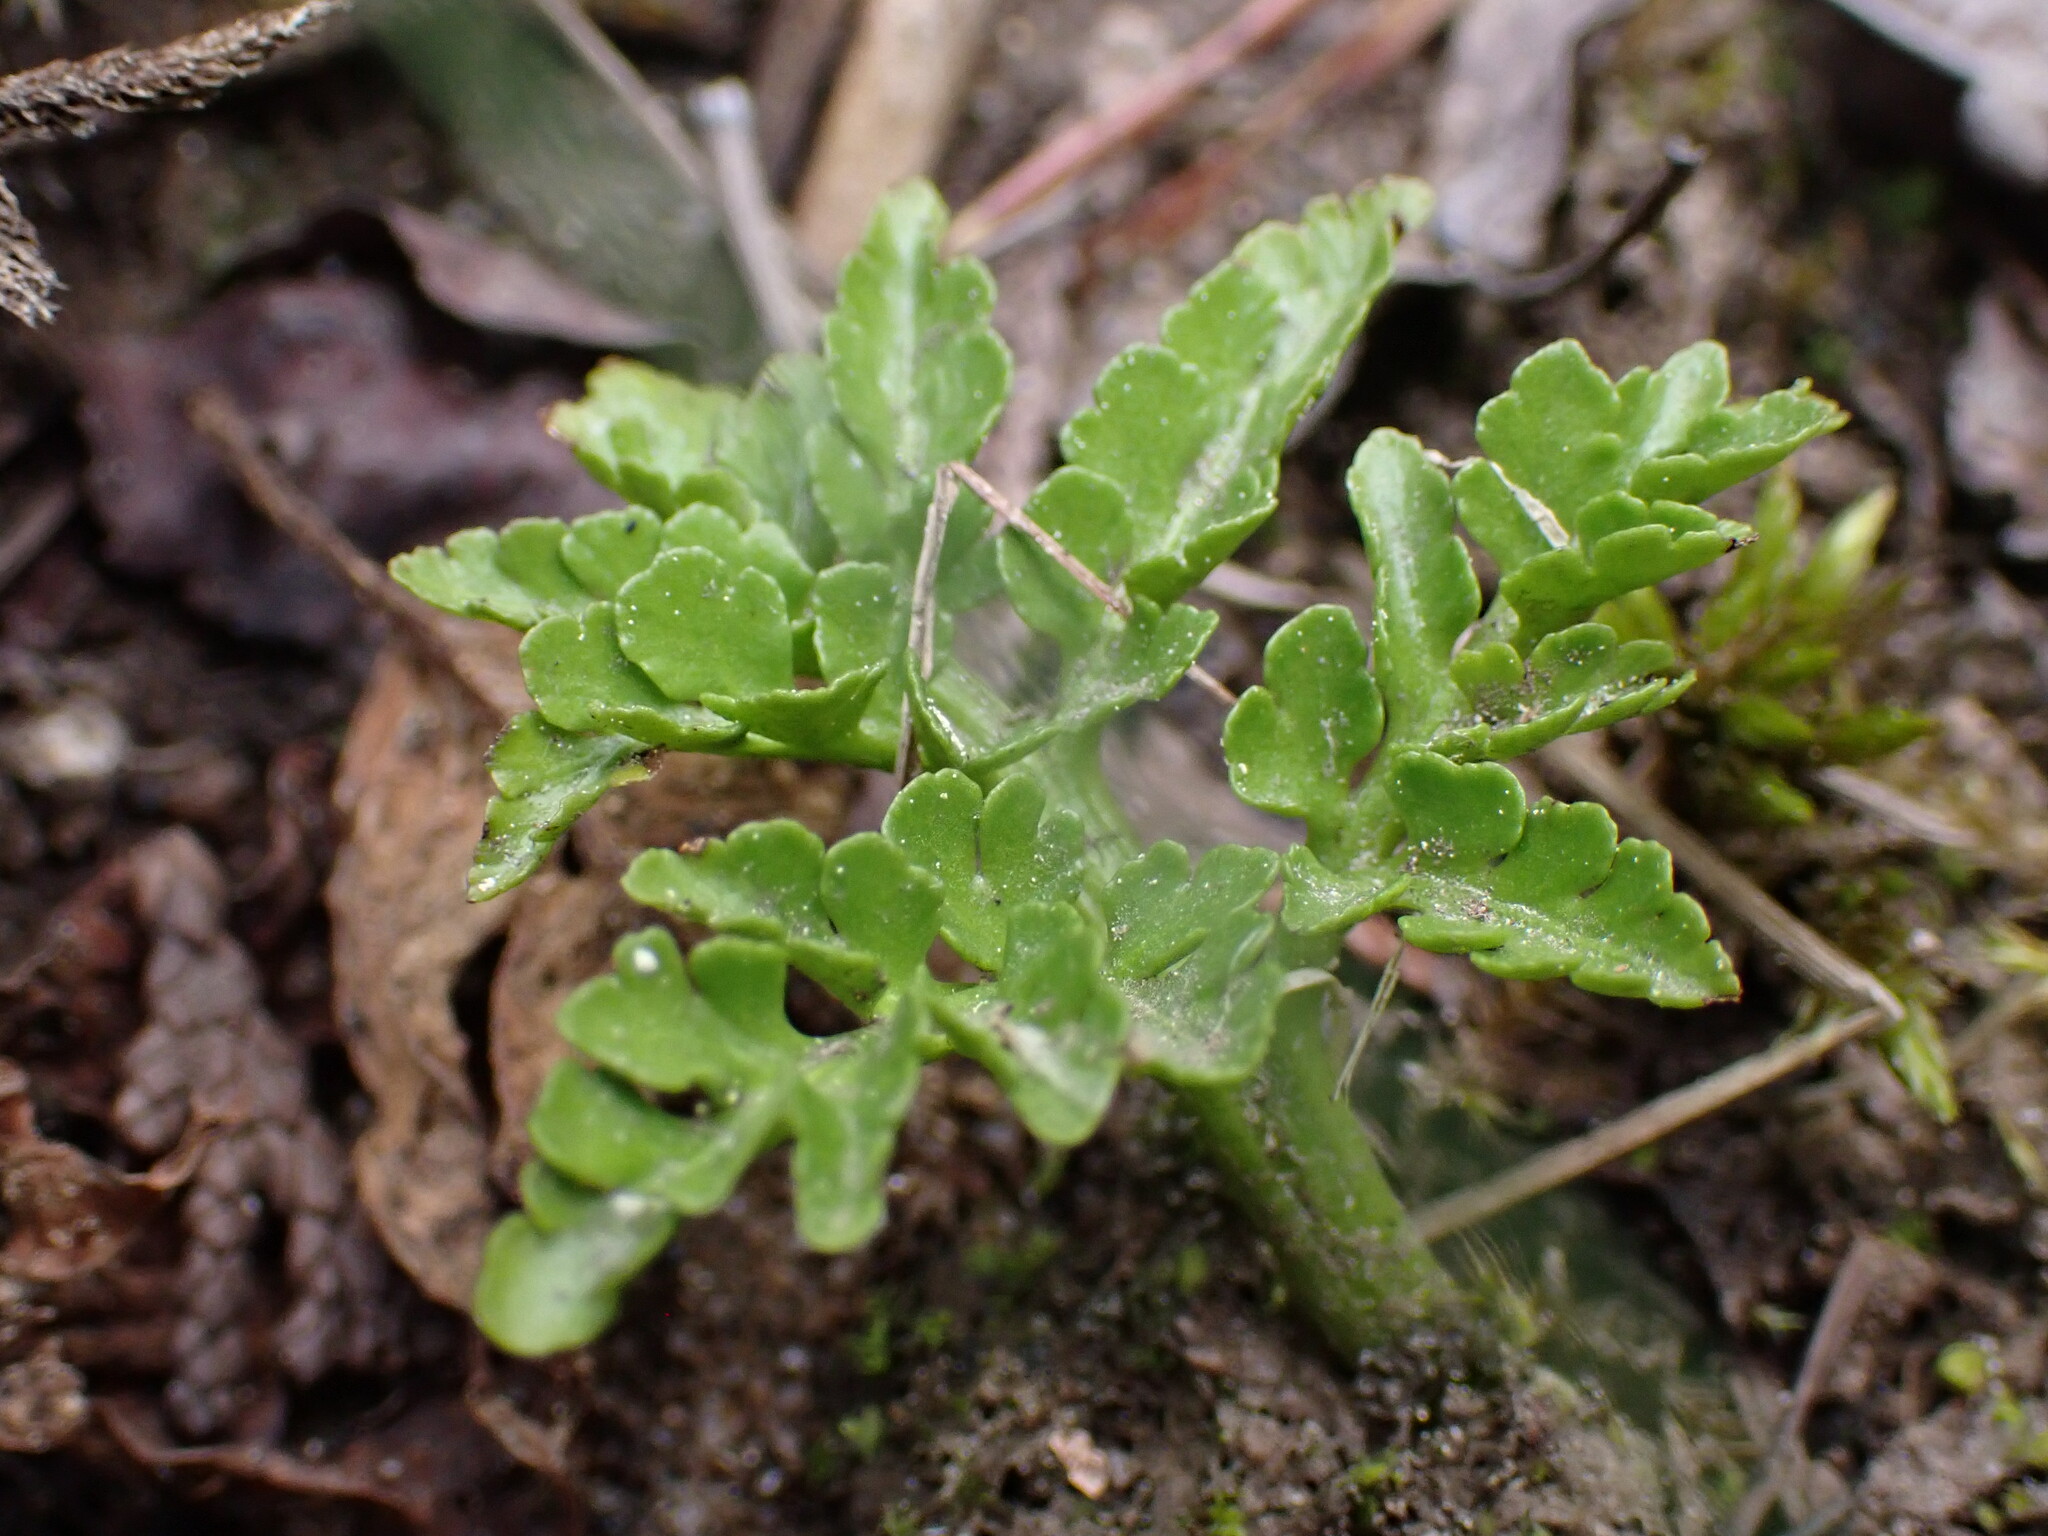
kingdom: Plantae
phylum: Tracheophyta
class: Polypodiopsida
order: Ophioglossales
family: Ophioglossaceae
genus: Sceptridium
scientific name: Sceptridium multifidum
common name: Leathery grape fern
